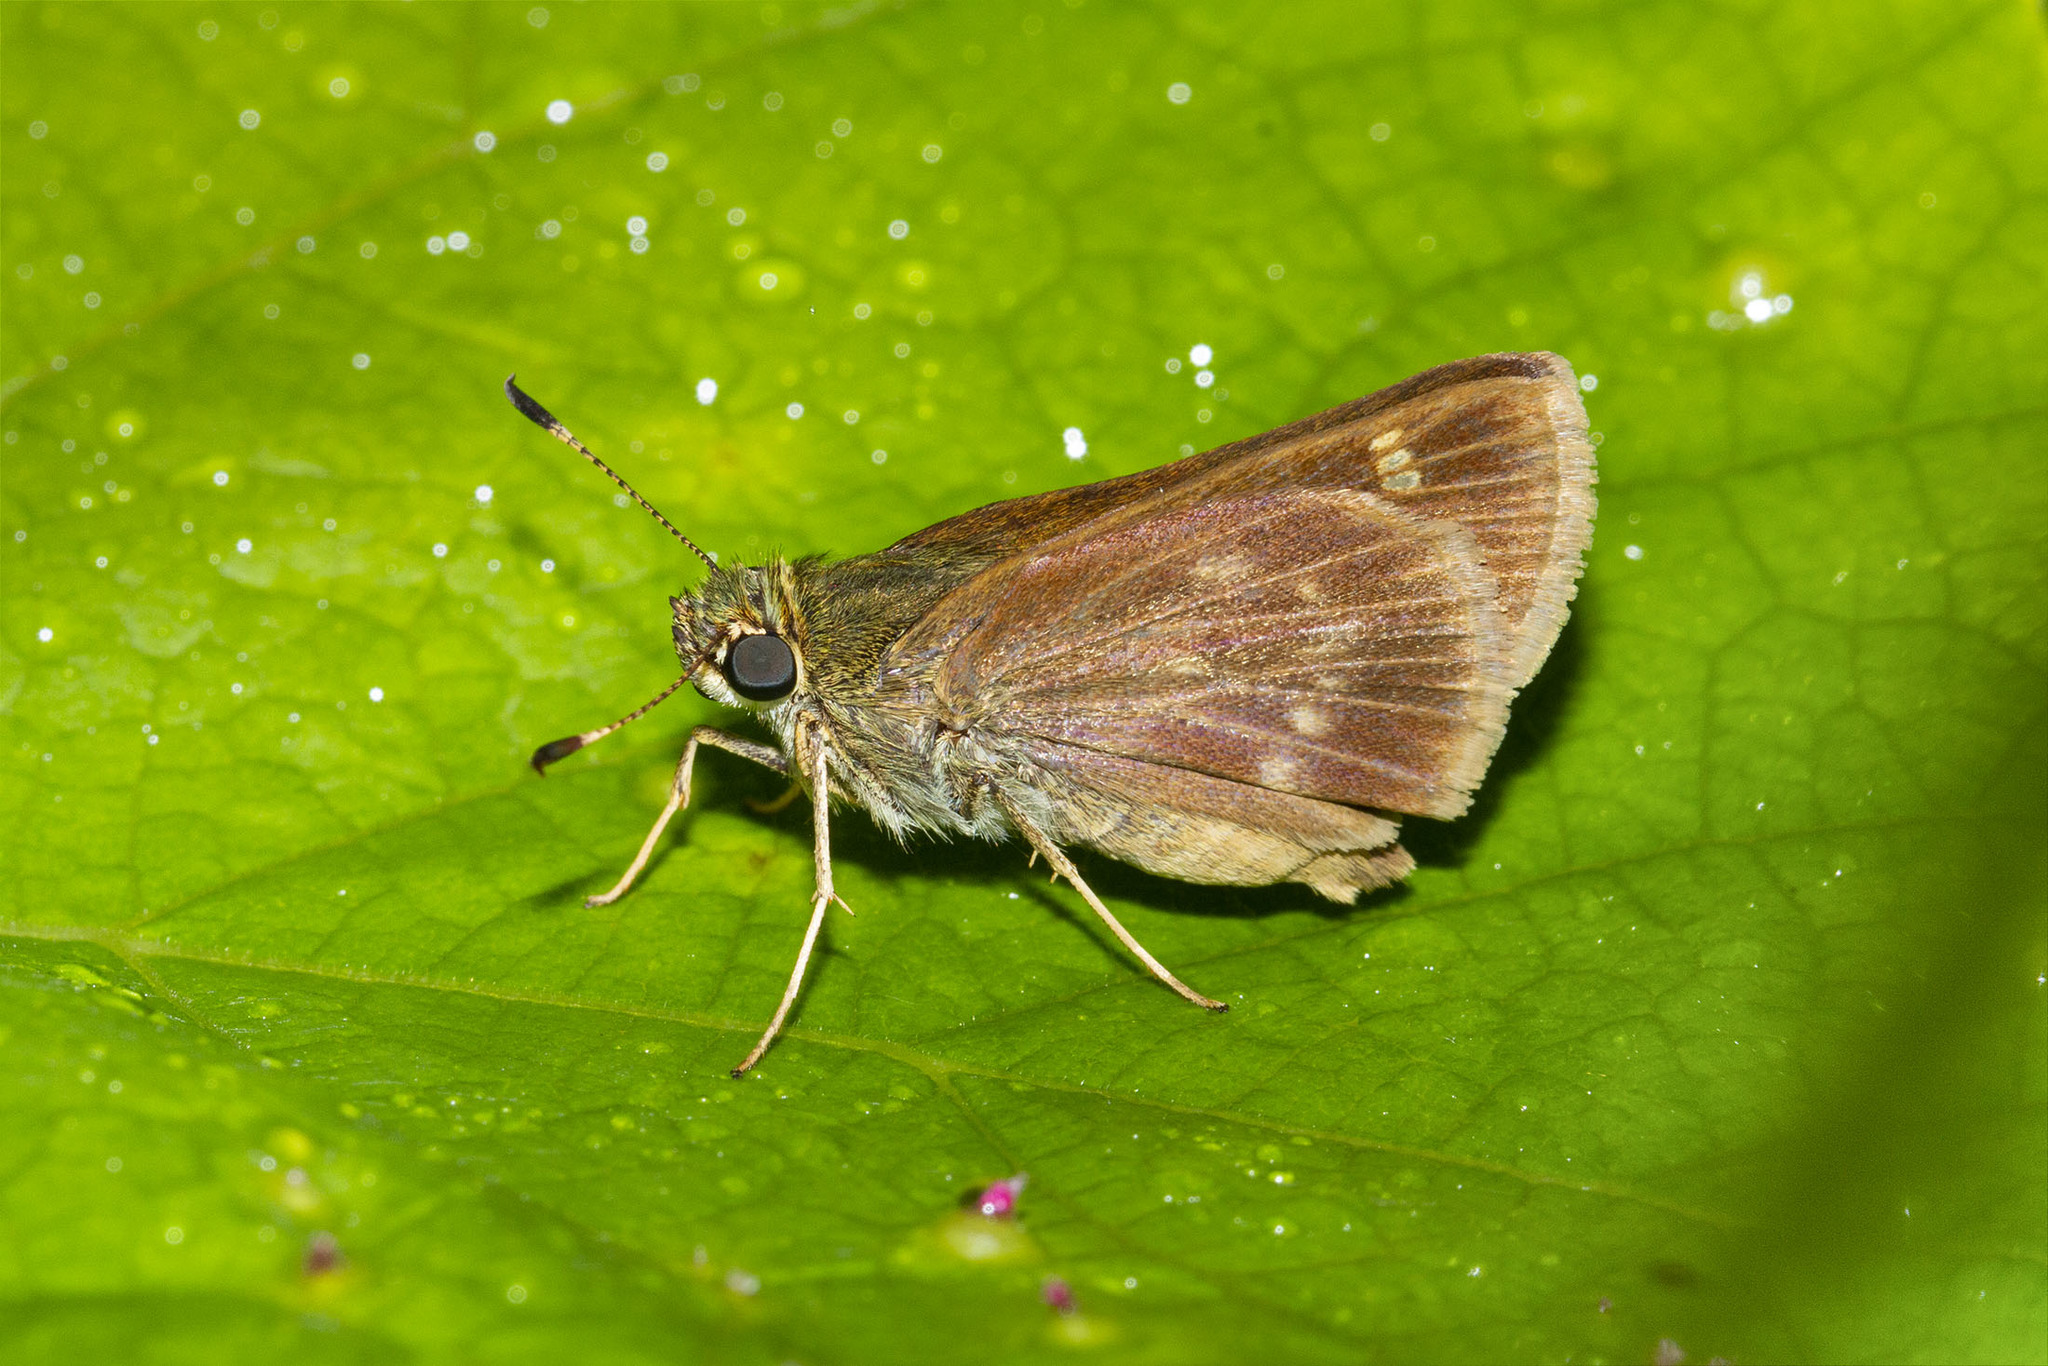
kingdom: Animalia
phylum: Arthropoda
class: Insecta
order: Lepidoptera
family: Hesperiidae
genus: Vernia
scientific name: Vernia verna
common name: Little glassywing
